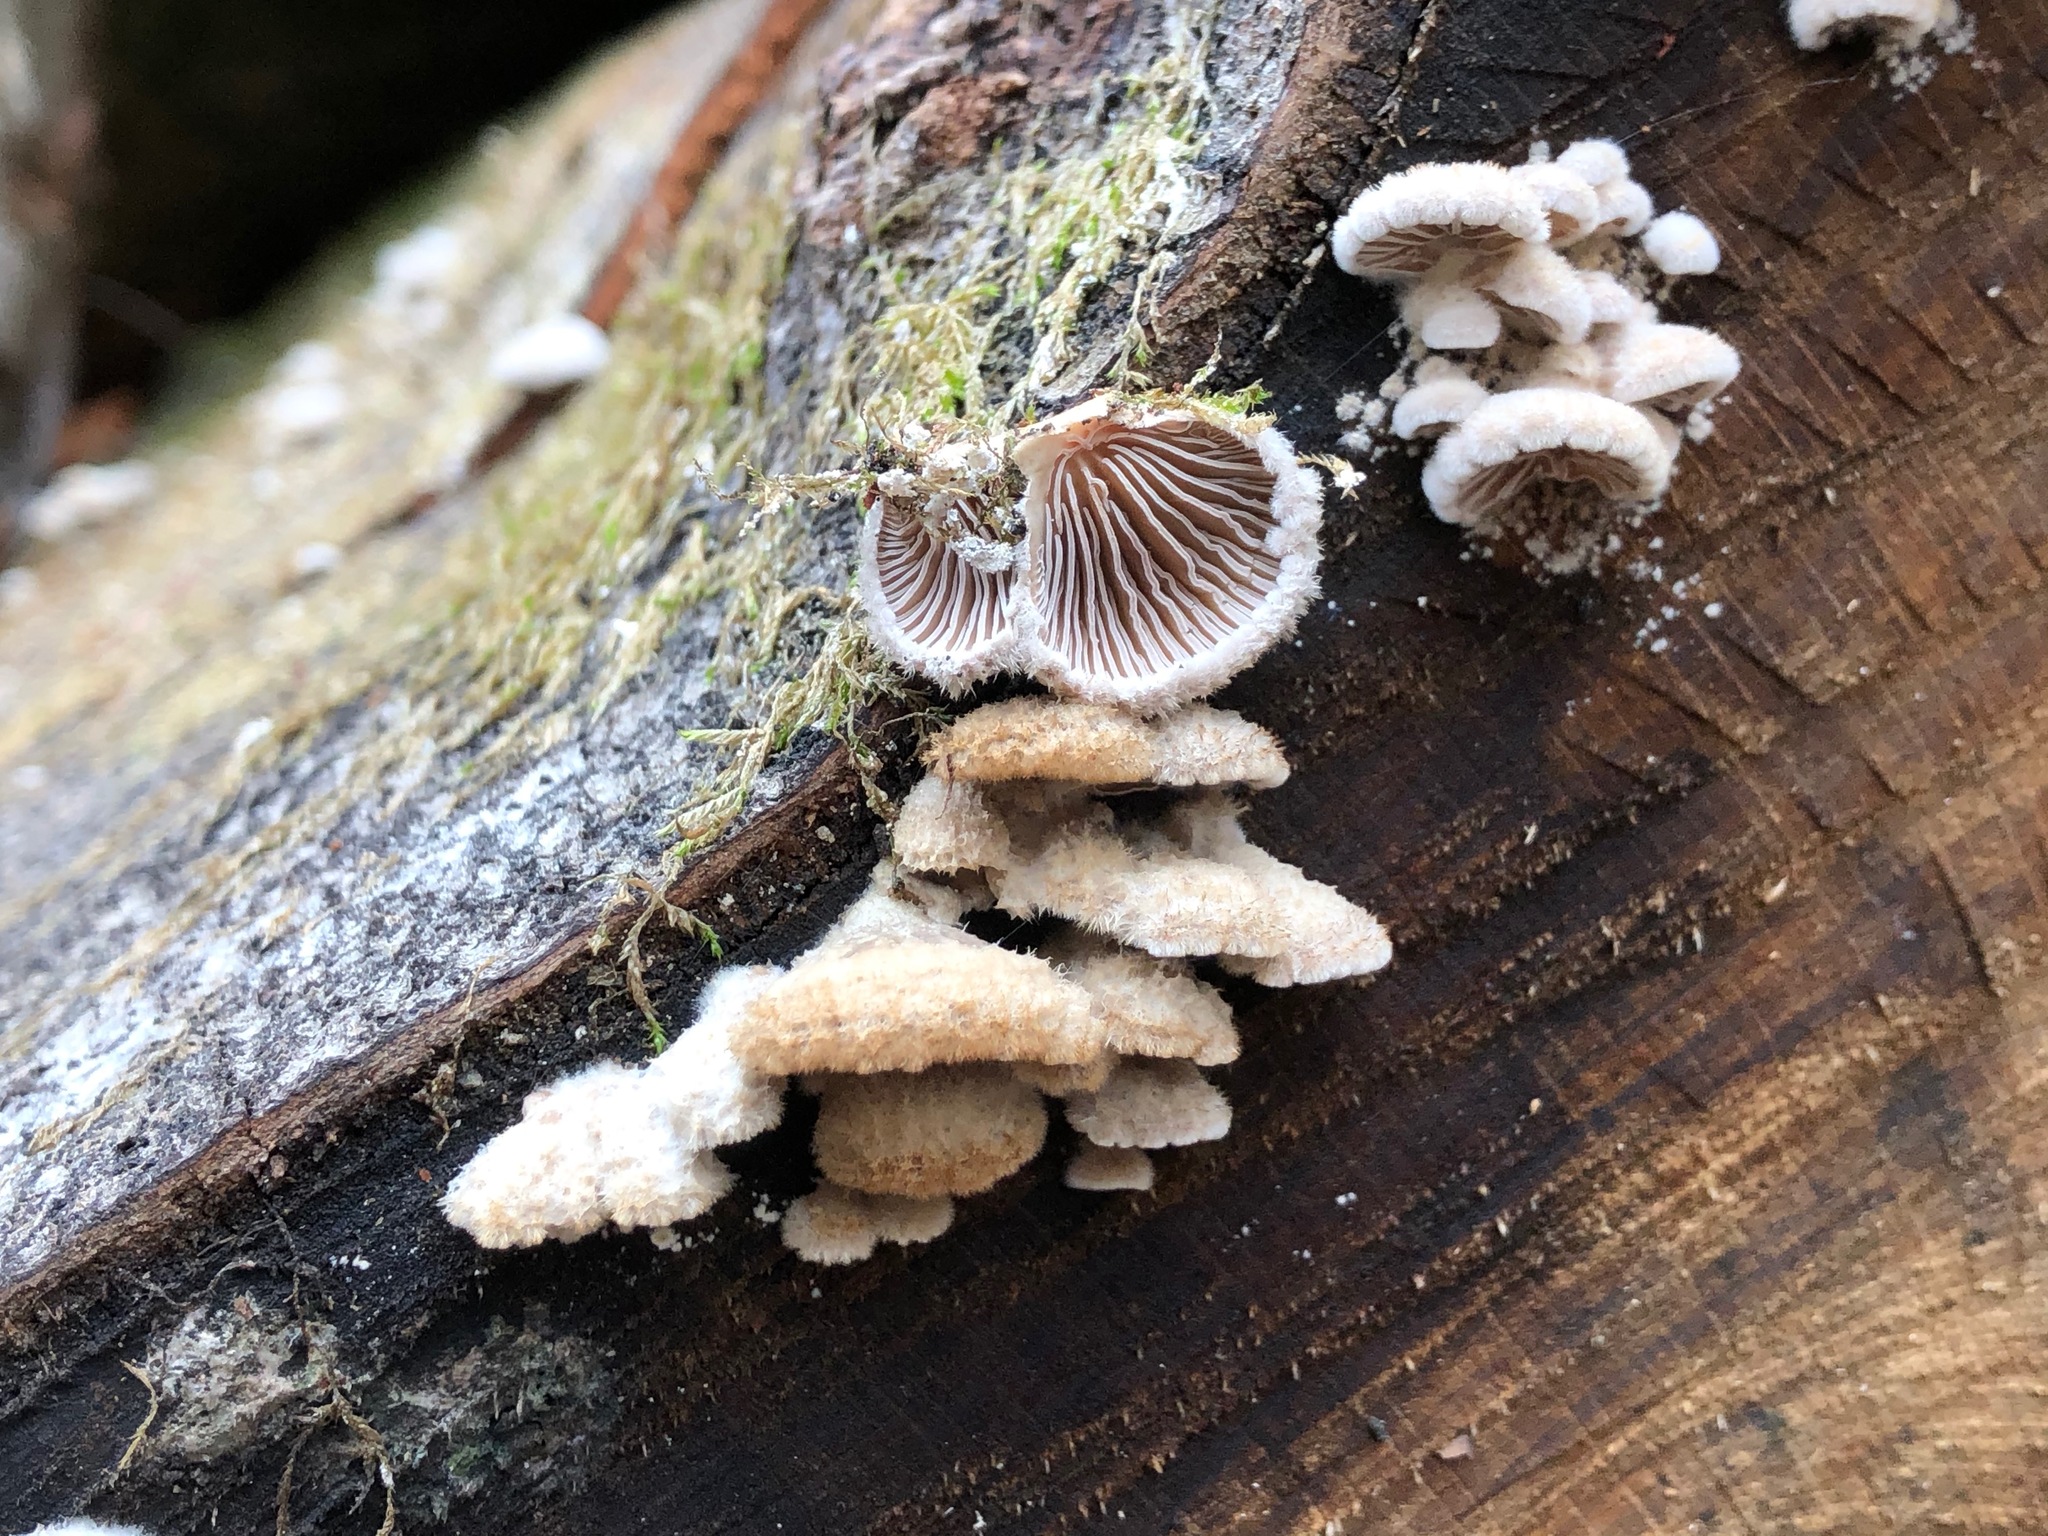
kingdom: Fungi
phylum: Basidiomycota
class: Agaricomycetes
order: Agaricales
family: Schizophyllaceae
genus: Schizophyllum
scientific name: Schizophyllum commune
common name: Common porecrust
